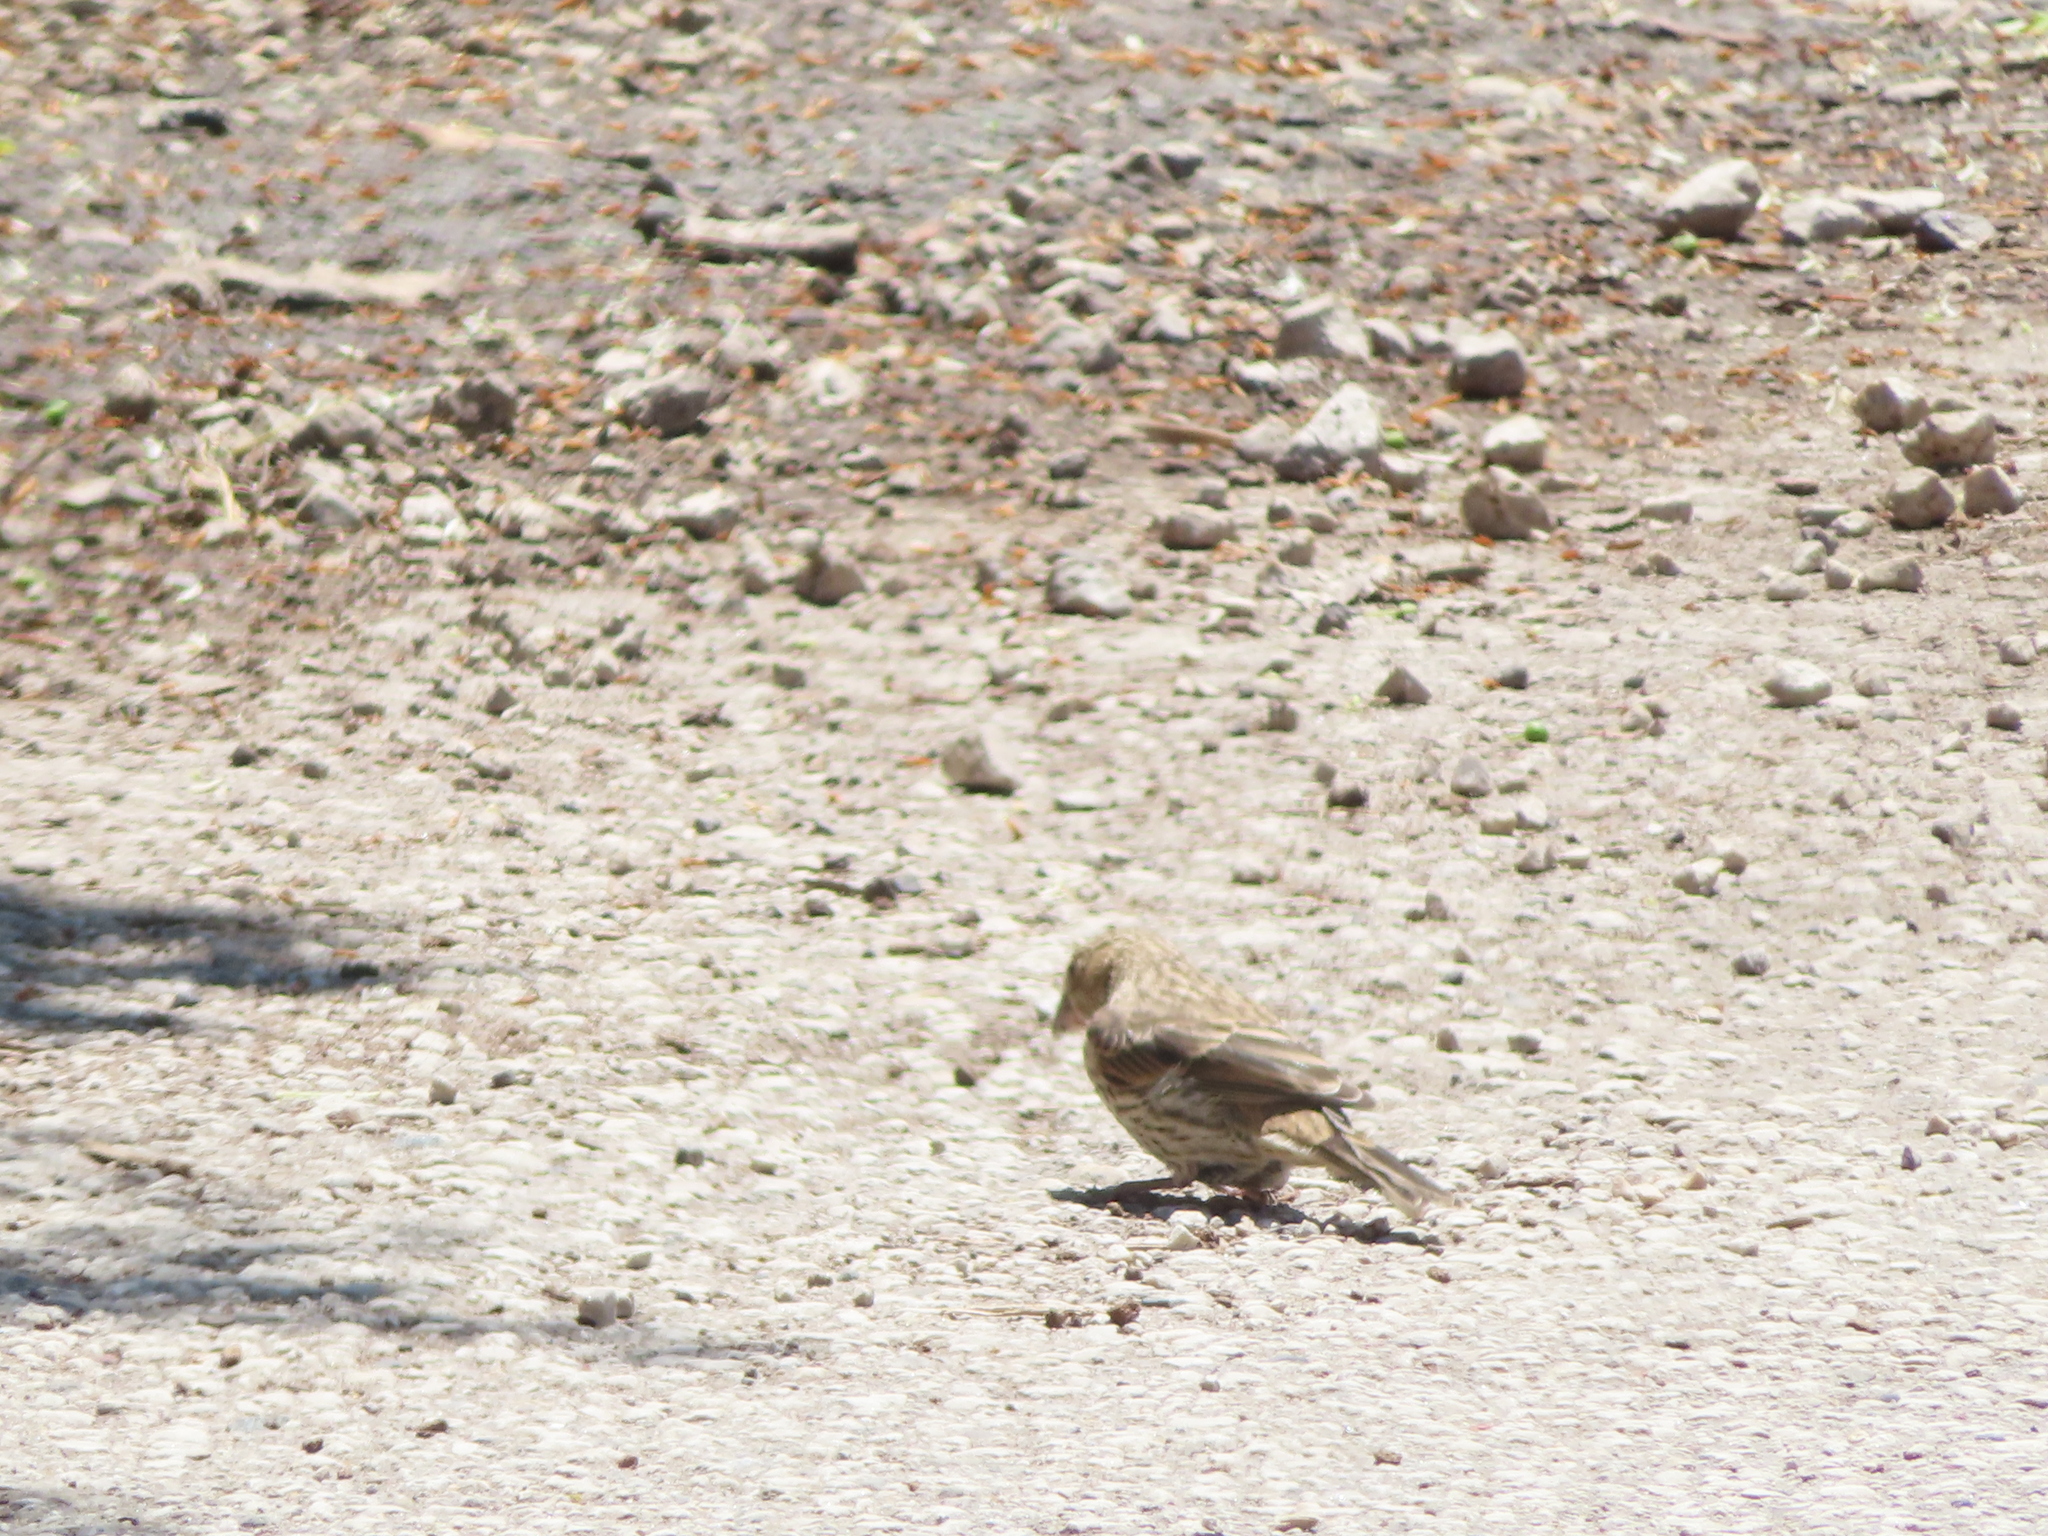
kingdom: Animalia
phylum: Chordata
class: Aves
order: Passeriformes
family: Fringillidae
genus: Haemorhous
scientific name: Haemorhous mexicanus
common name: House finch
